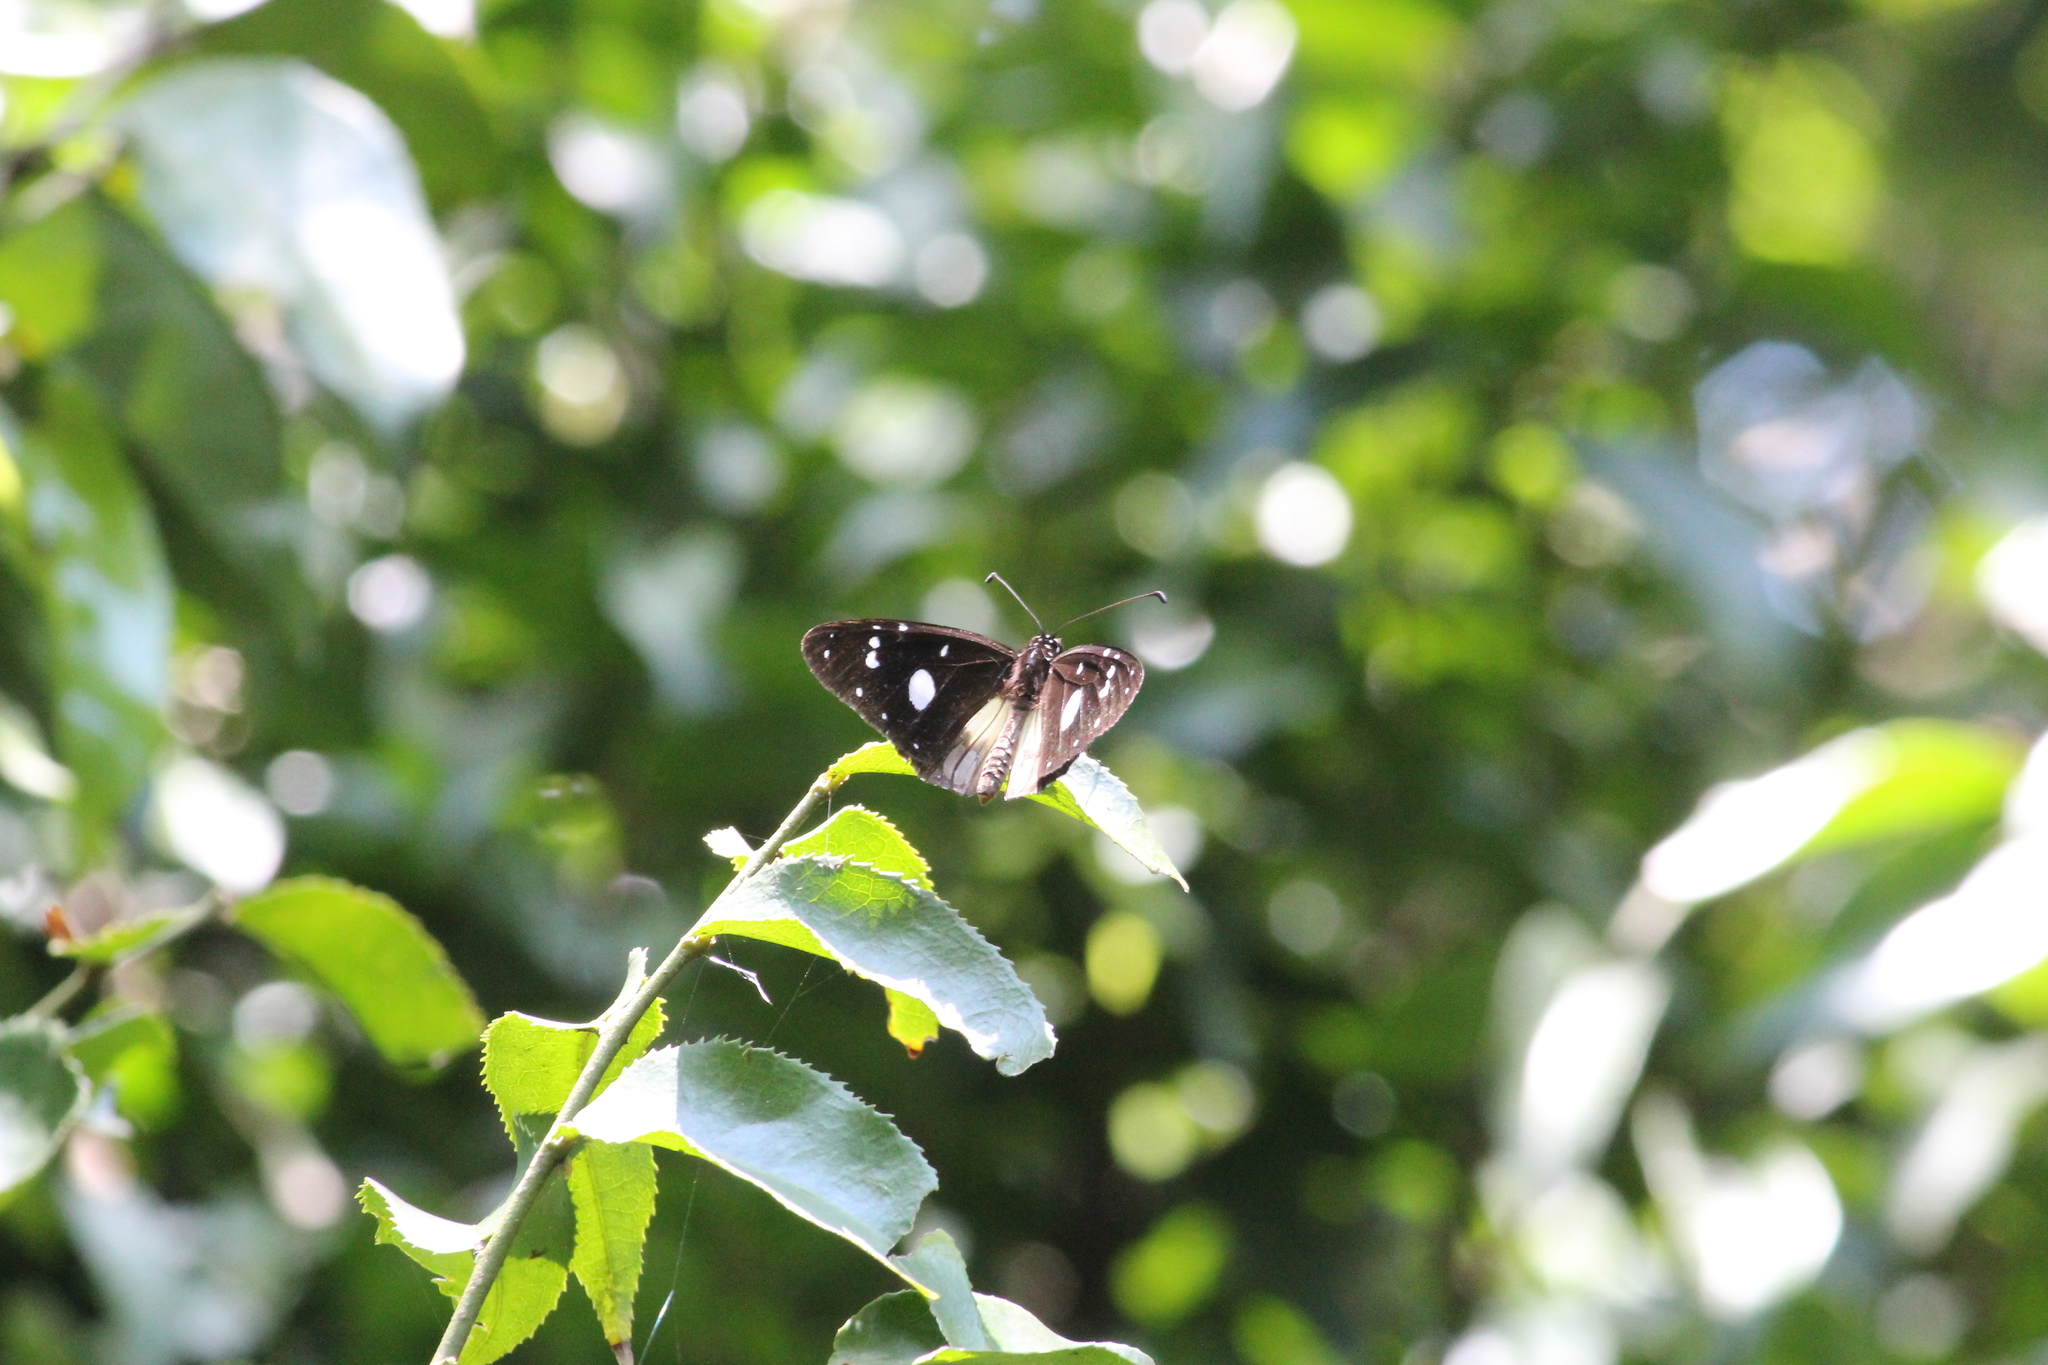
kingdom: Animalia
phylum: Arthropoda
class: Insecta
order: Lepidoptera
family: Nymphalidae
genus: Amauris
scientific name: Amauris albimaculata
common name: Layman
